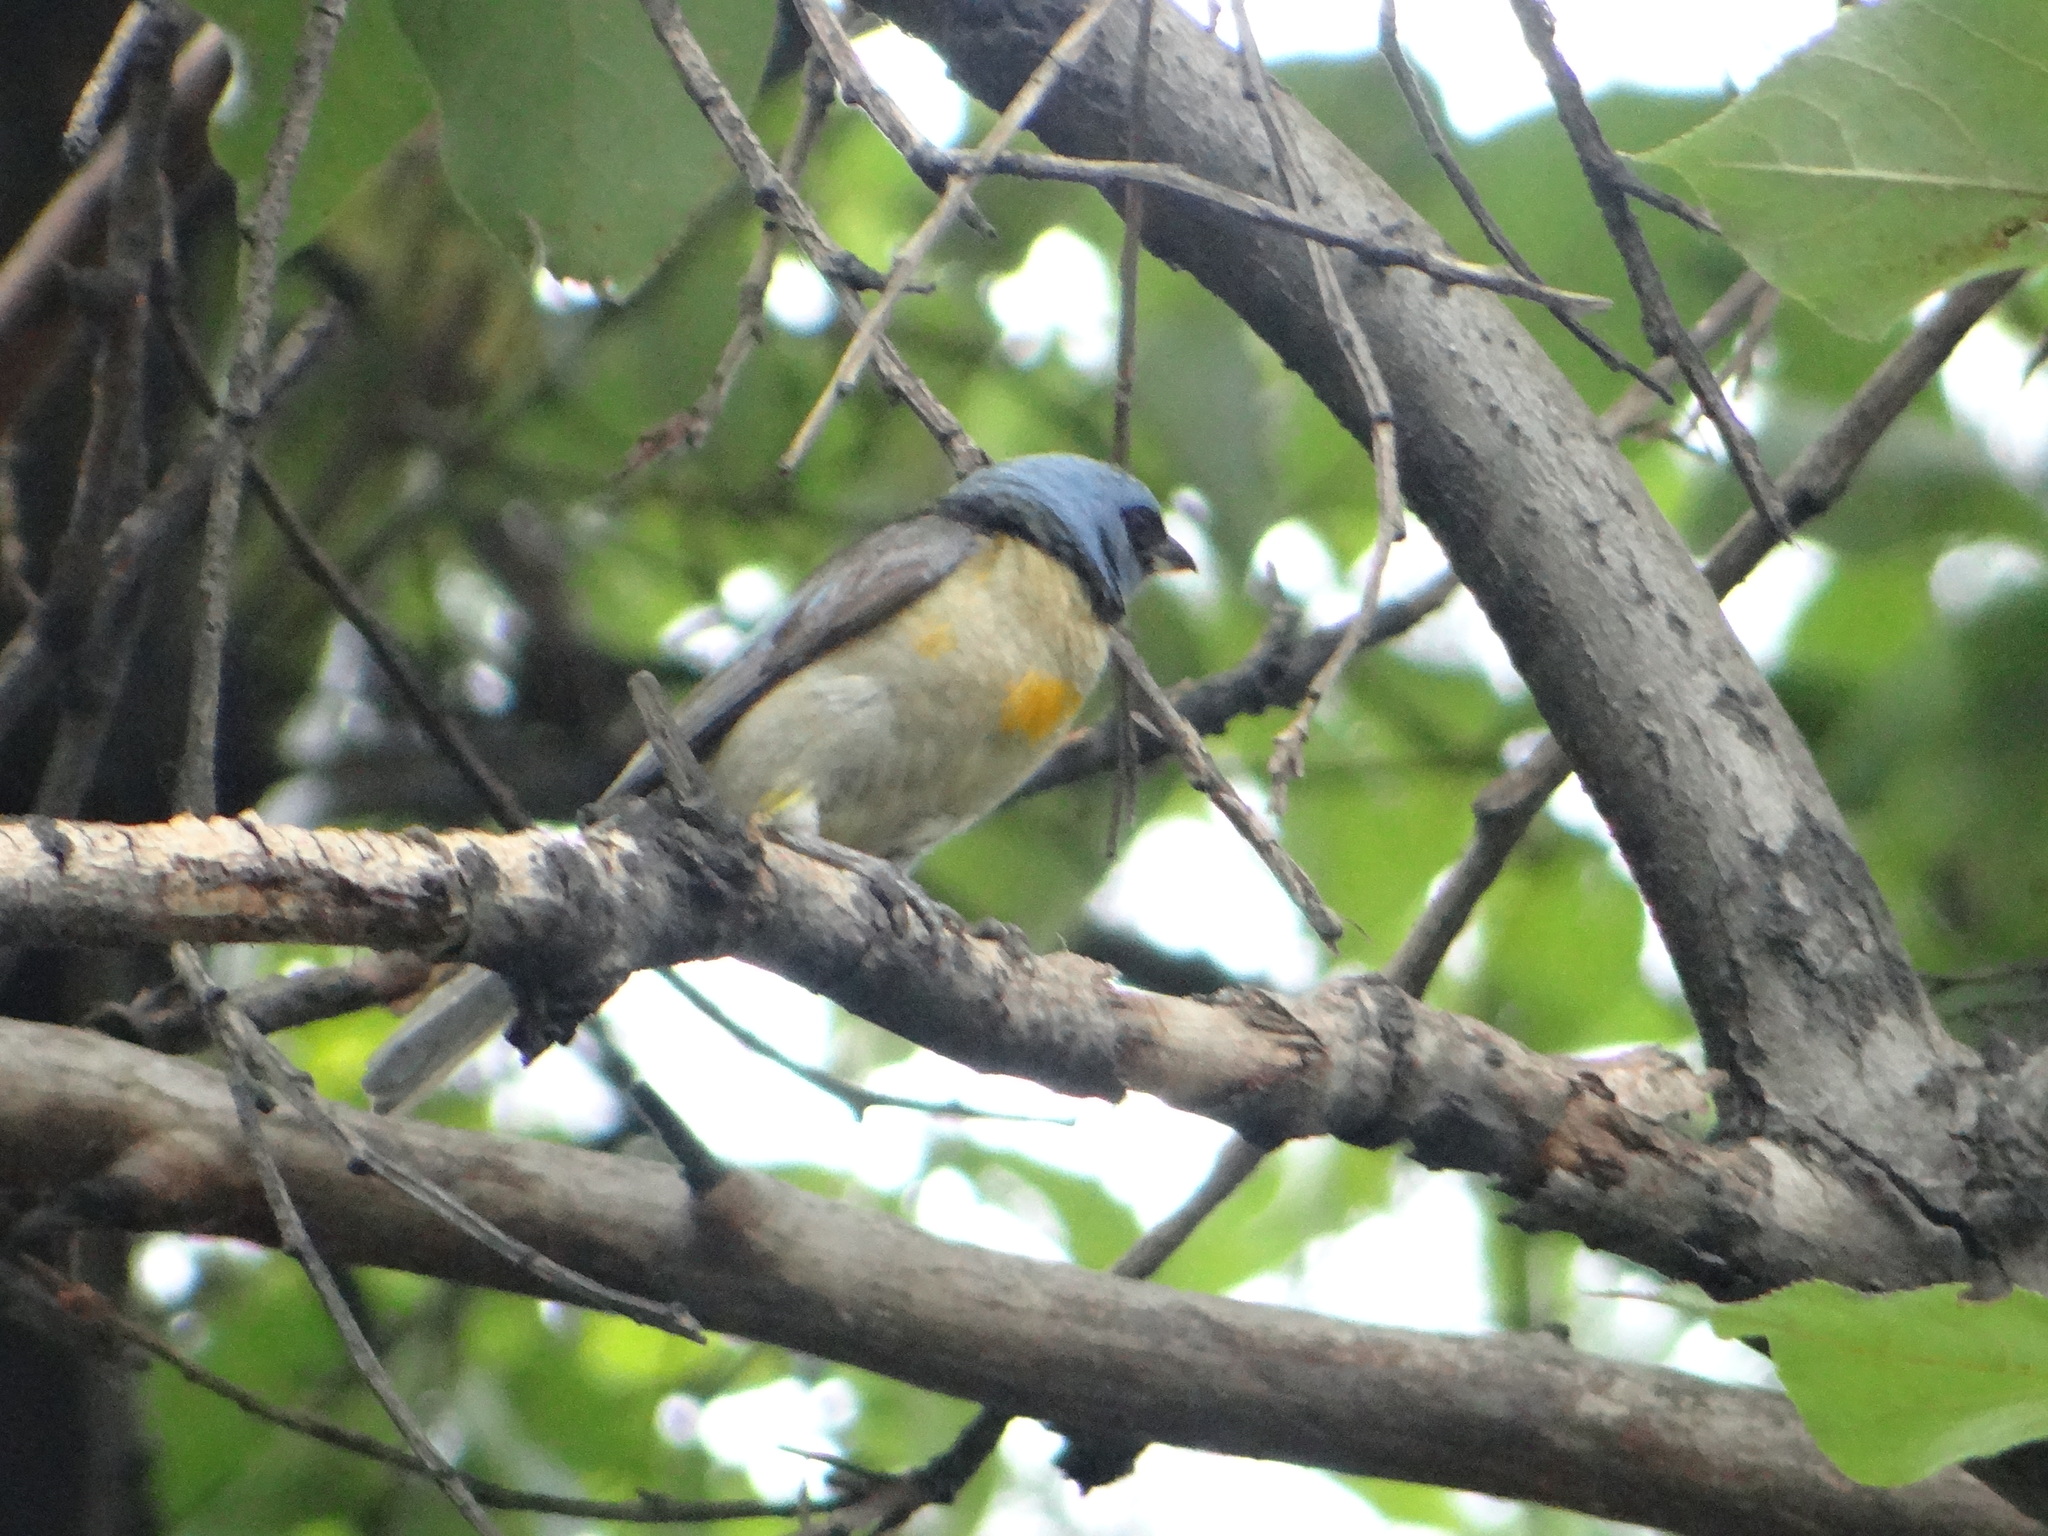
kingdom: Animalia
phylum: Chordata
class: Aves
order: Passeriformes
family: Thraupidae
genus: Rauenia
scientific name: Rauenia bonariensis
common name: Blue-and-yellow tanager
